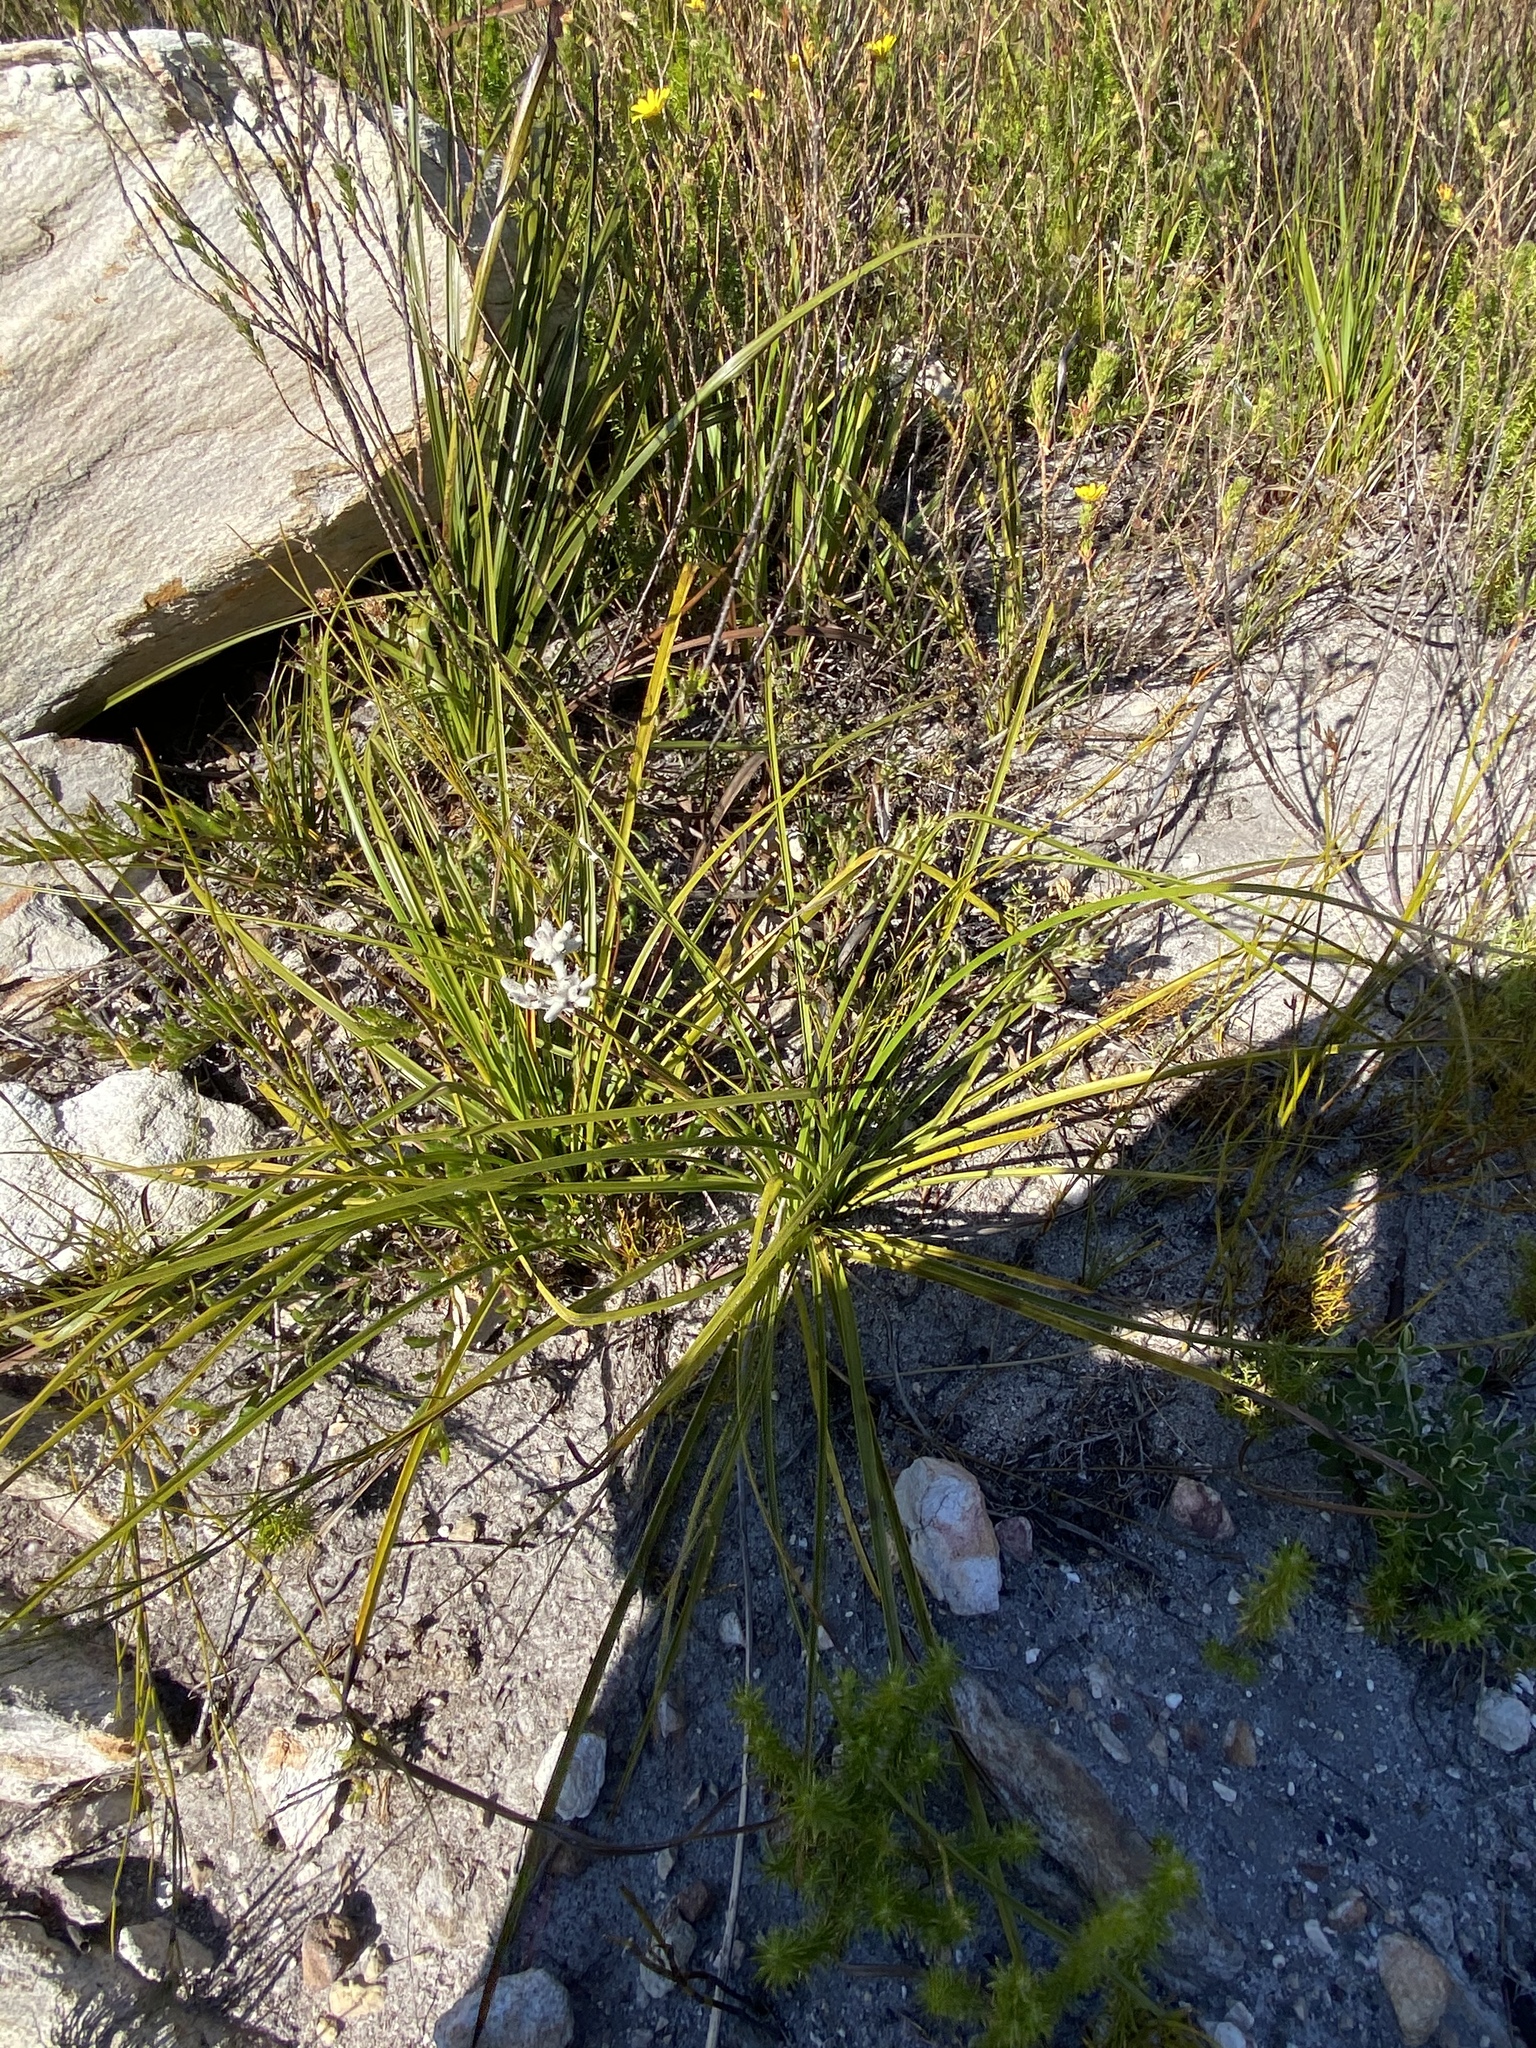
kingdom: Plantae
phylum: Tracheophyta
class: Liliopsida
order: Asparagales
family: Lanariaceae
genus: Lanaria
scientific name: Lanaria lanata
